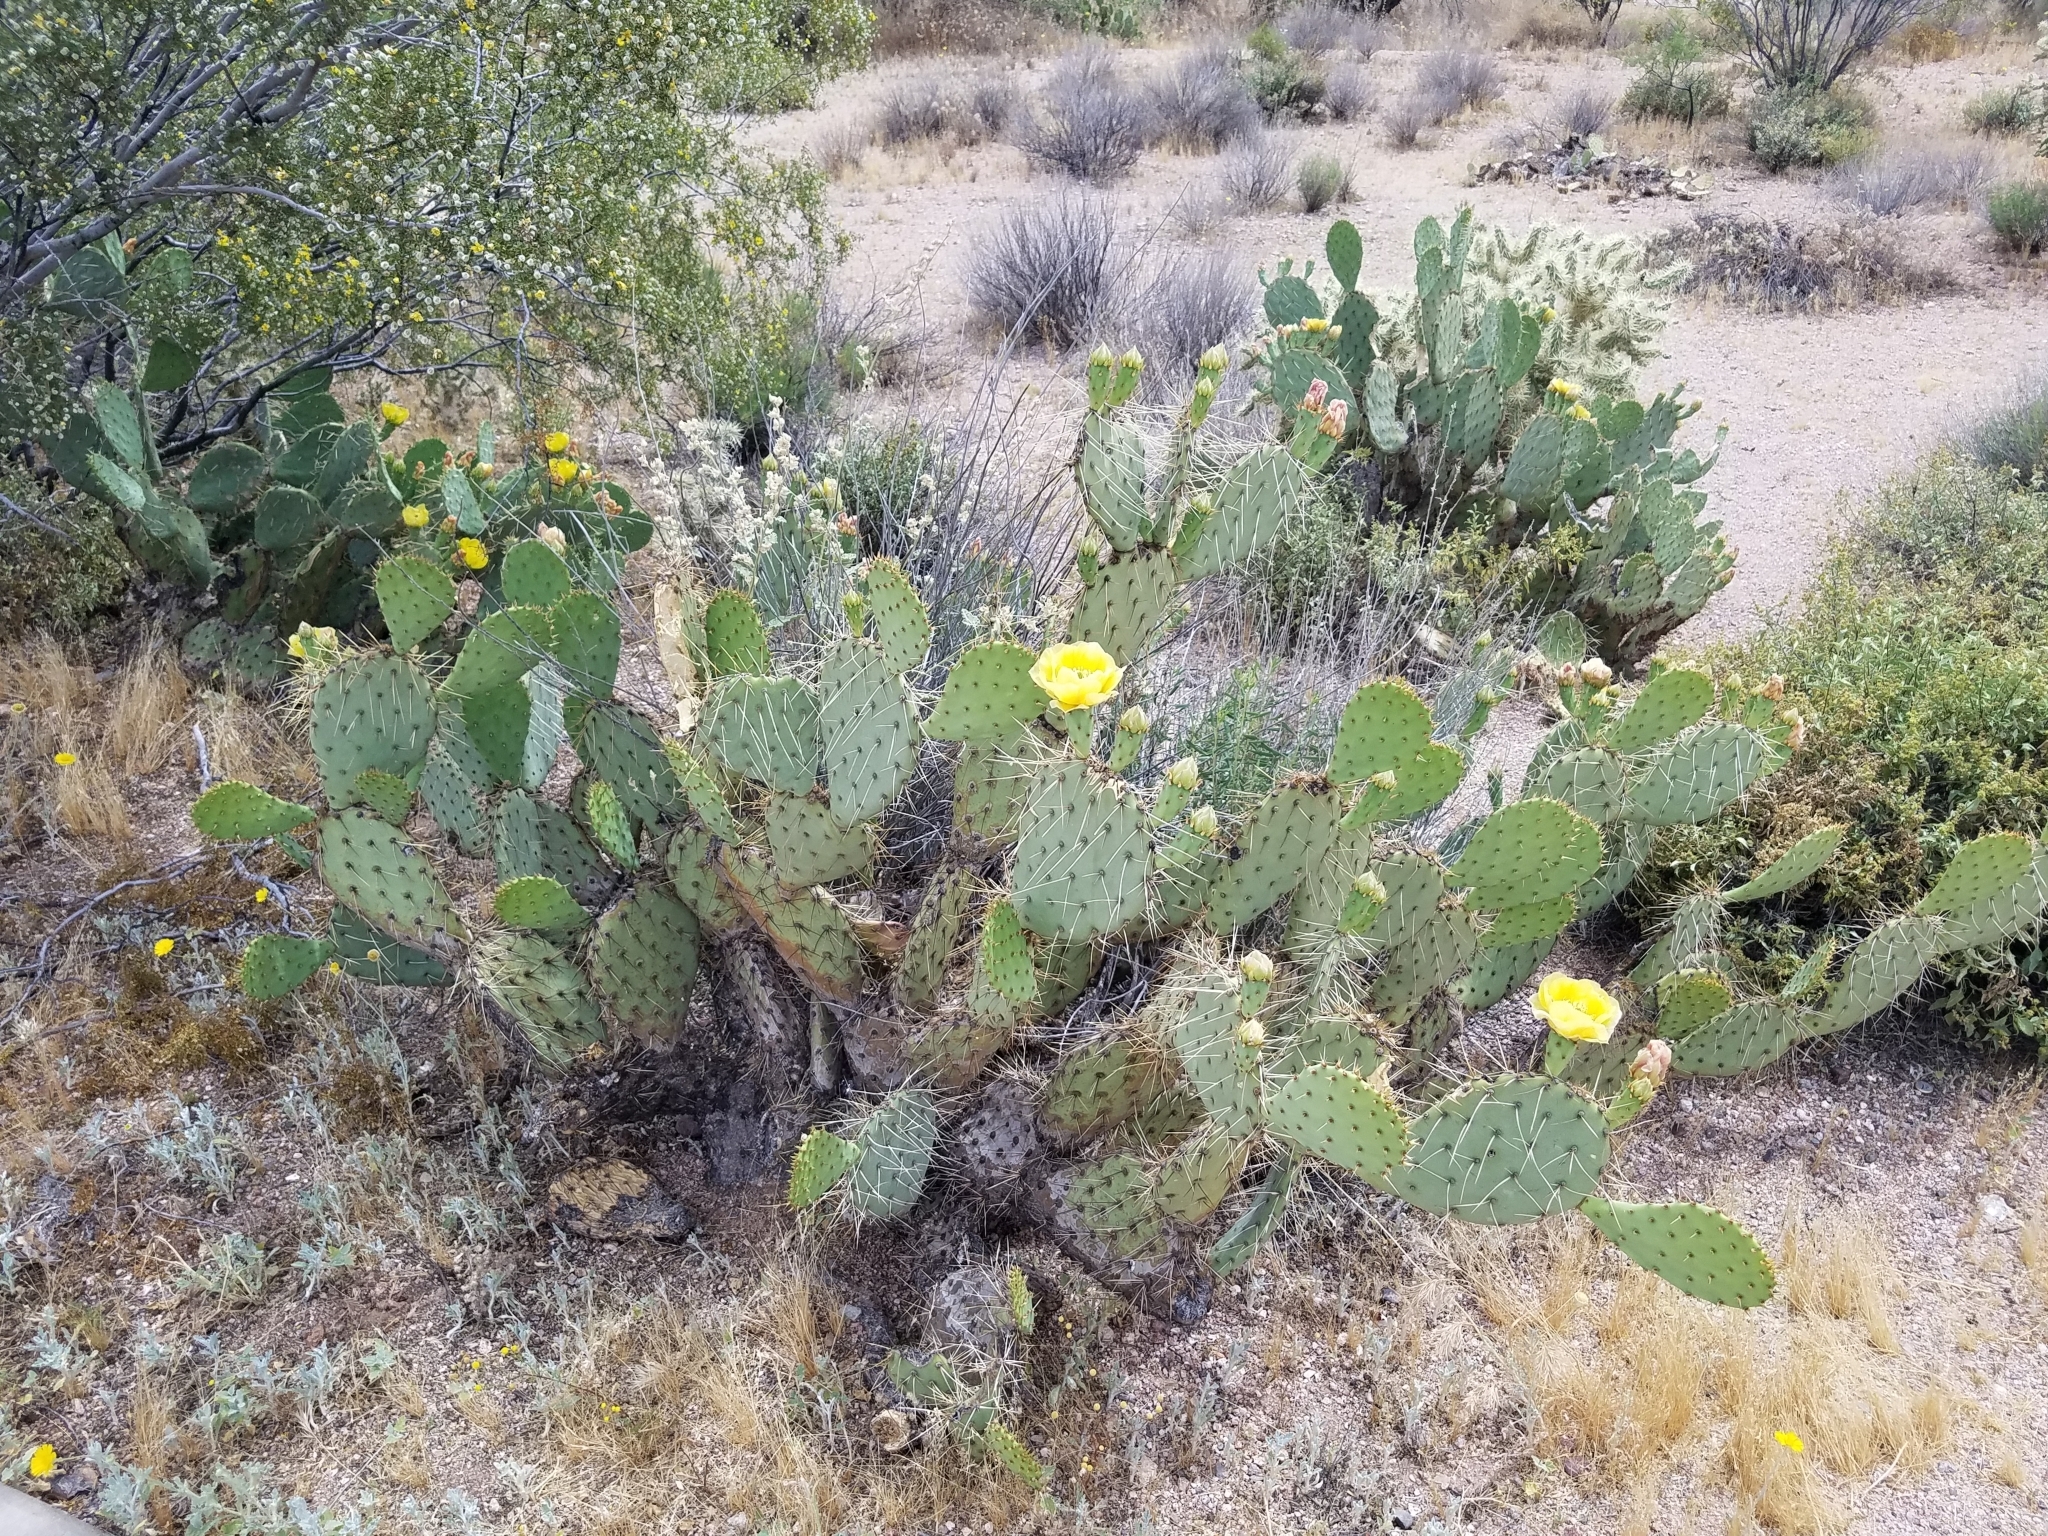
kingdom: Plantae
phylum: Tracheophyta
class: Magnoliopsida
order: Caryophyllales
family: Cactaceae
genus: Opuntia
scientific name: Opuntia engelmannii
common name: Cactus-apple
